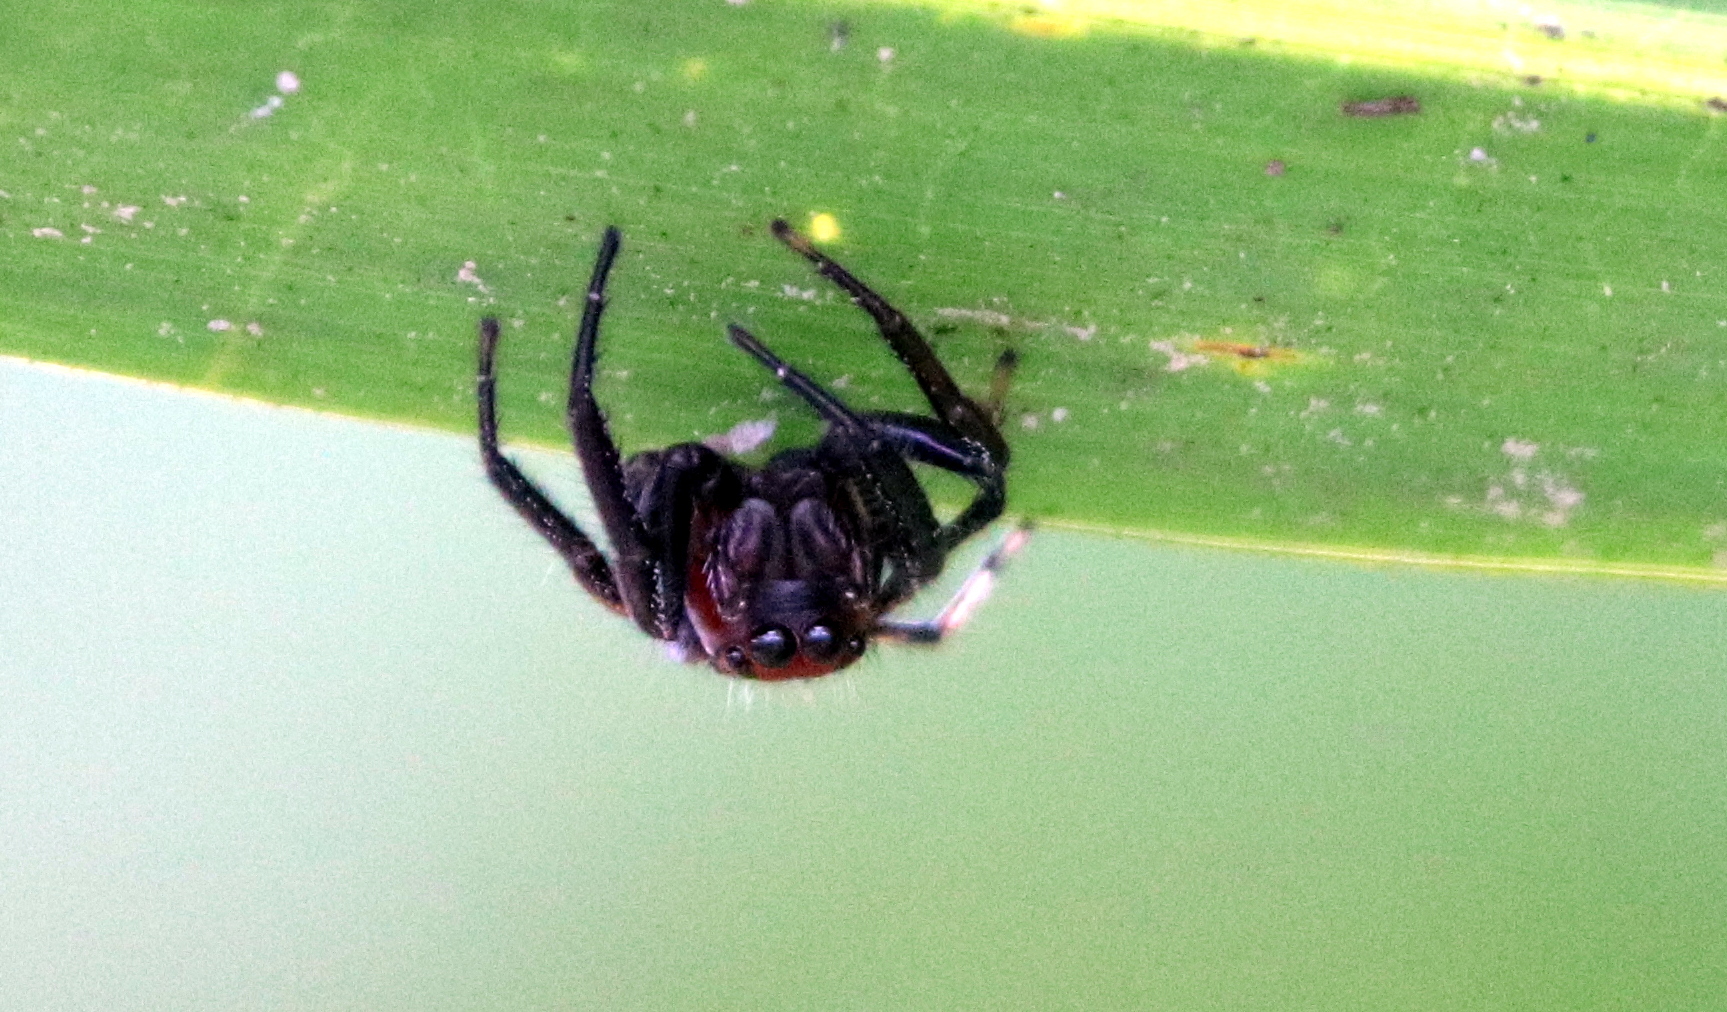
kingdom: Animalia
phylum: Arthropoda
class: Arachnida
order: Araneae
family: Salticidae
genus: Colonus
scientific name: Colonus sylvanus
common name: Jumping spiders
